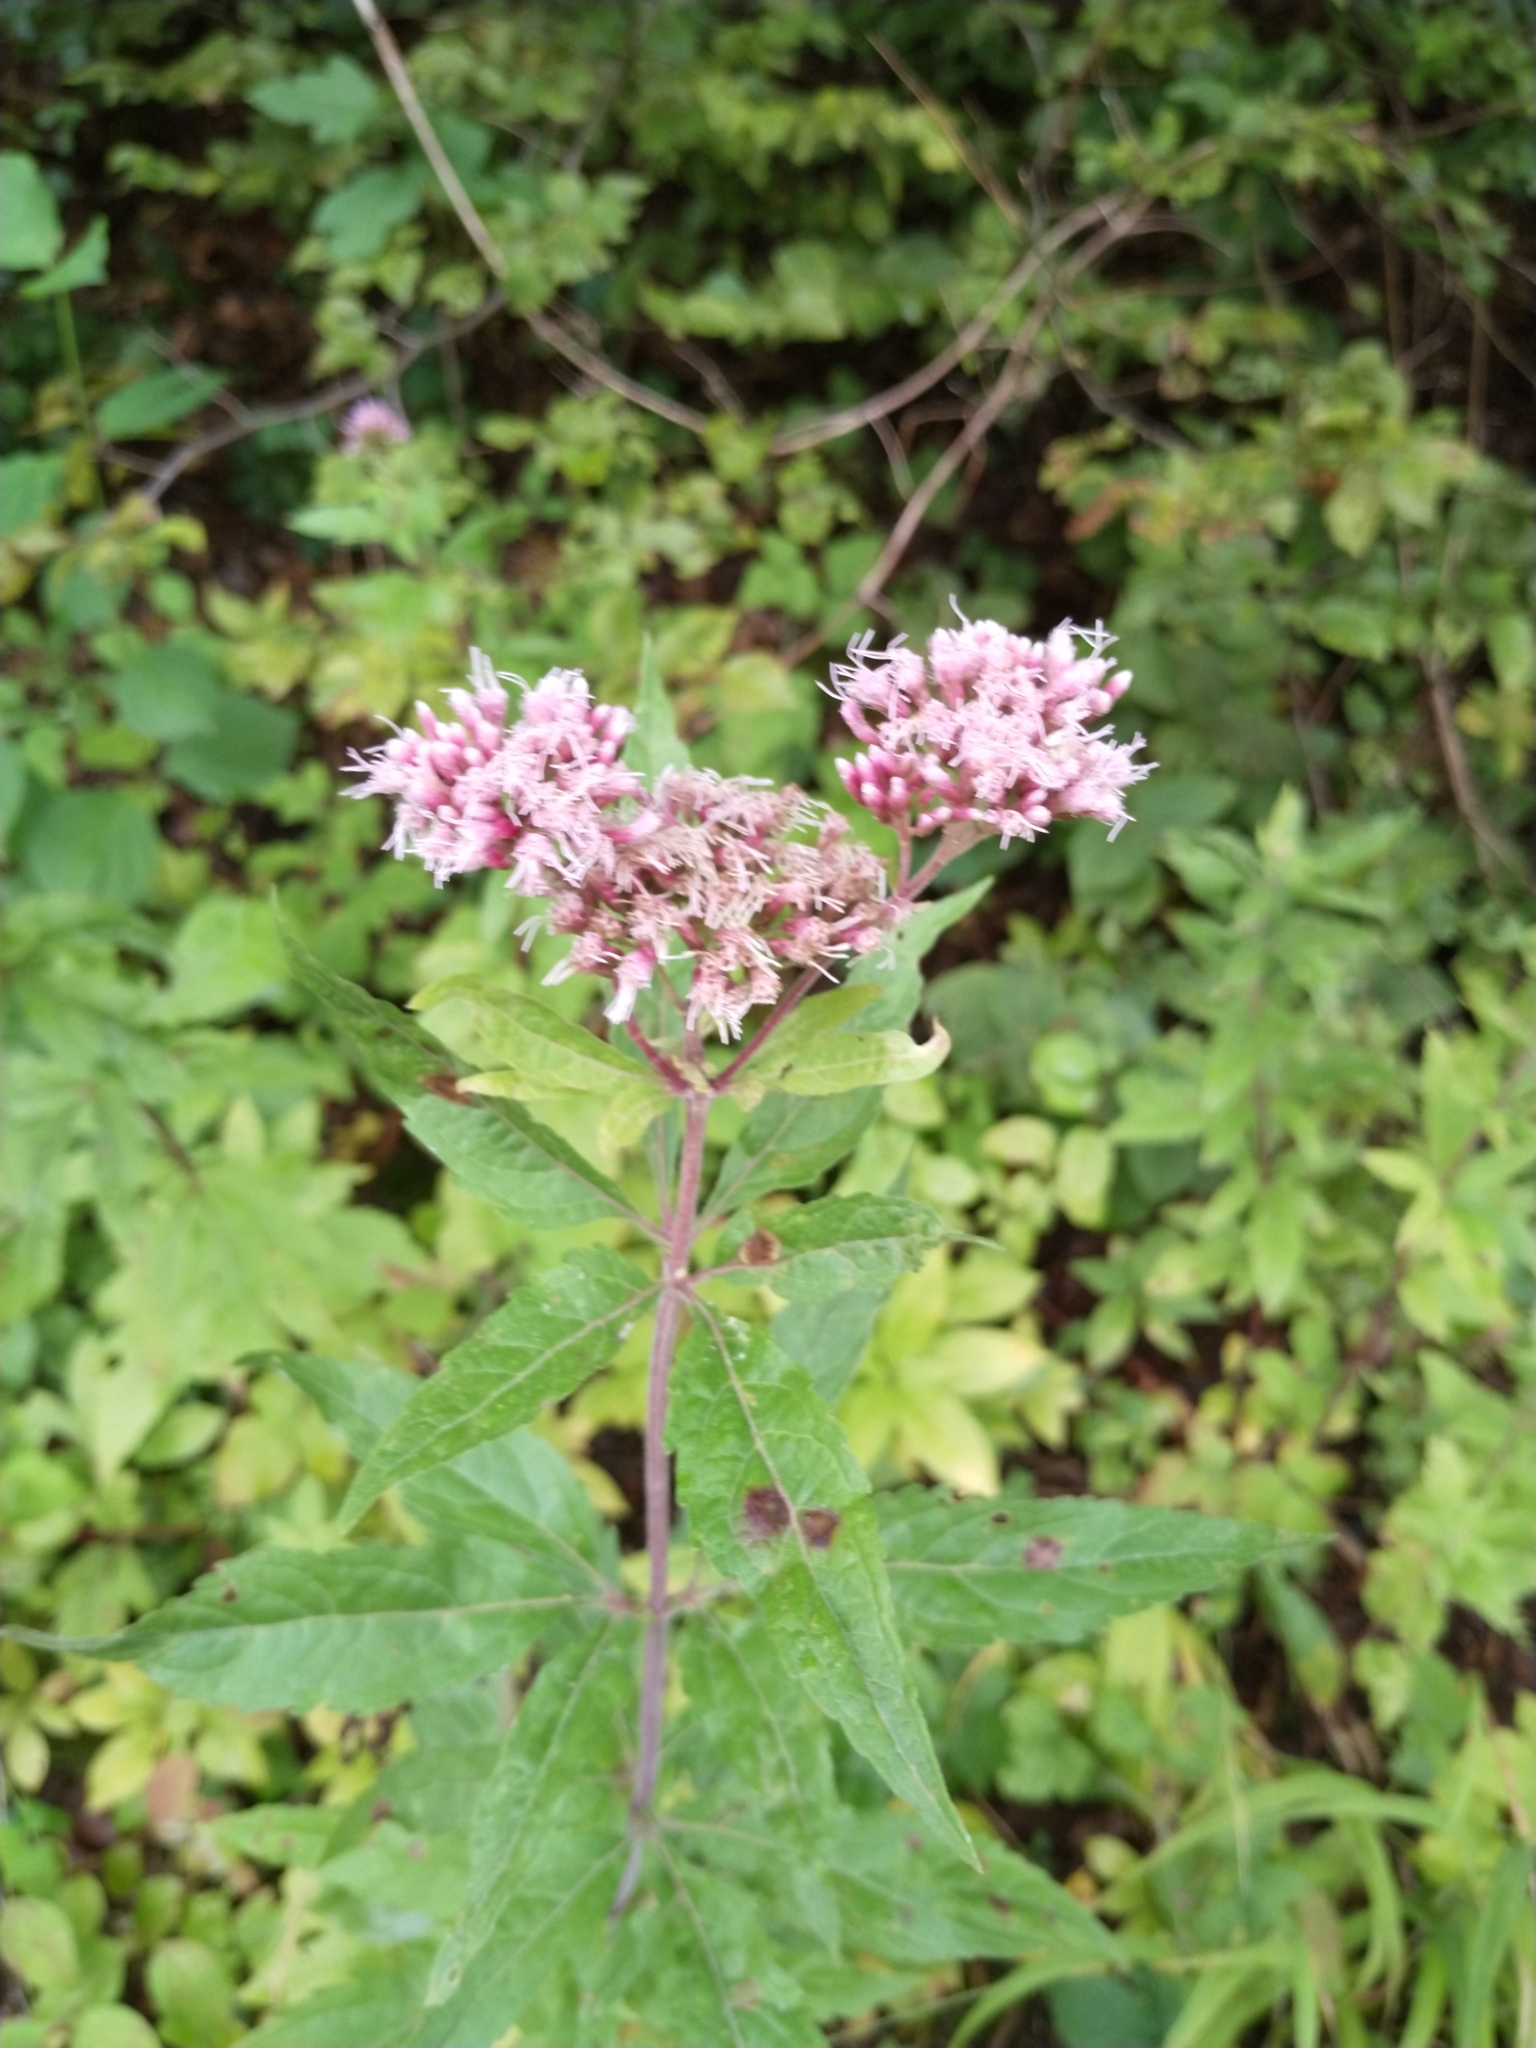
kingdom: Plantae
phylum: Tracheophyta
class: Magnoliopsida
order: Asterales
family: Asteraceae
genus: Eupatorium
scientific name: Eupatorium cannabinum
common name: Hemp-agrimony
